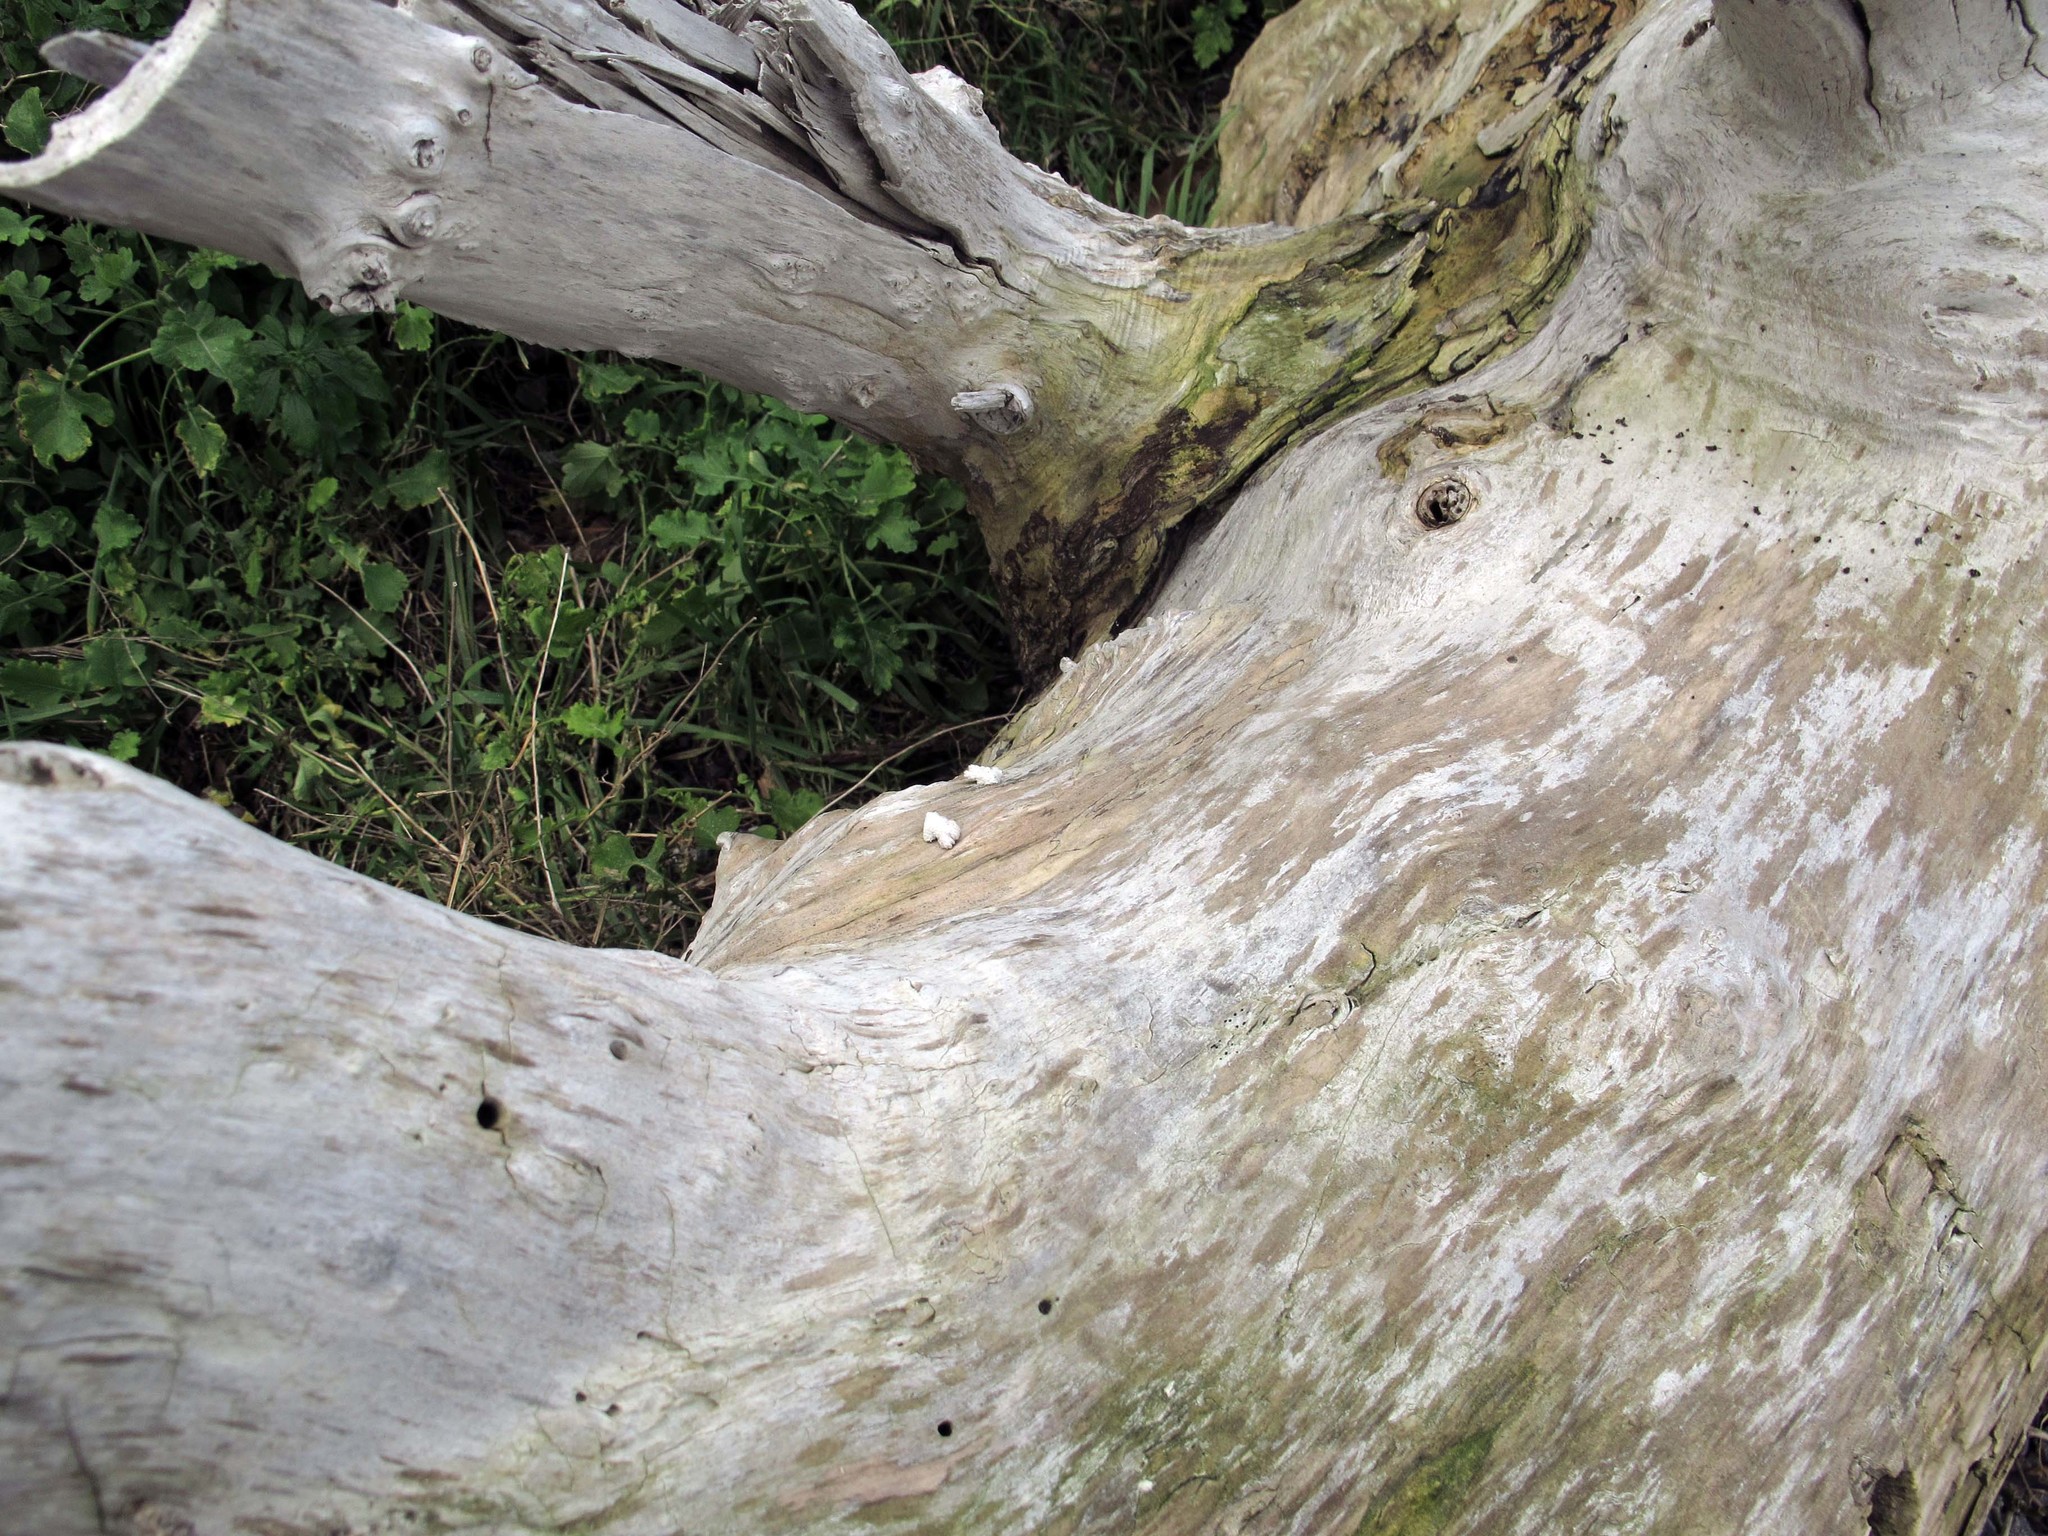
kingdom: Fungi
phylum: Basidiomycota
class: Agaricomycetes
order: Agaricales
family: Schizophyllaceae
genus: Schizophyllum
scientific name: Schizophyllum commune
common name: Common porecrust
